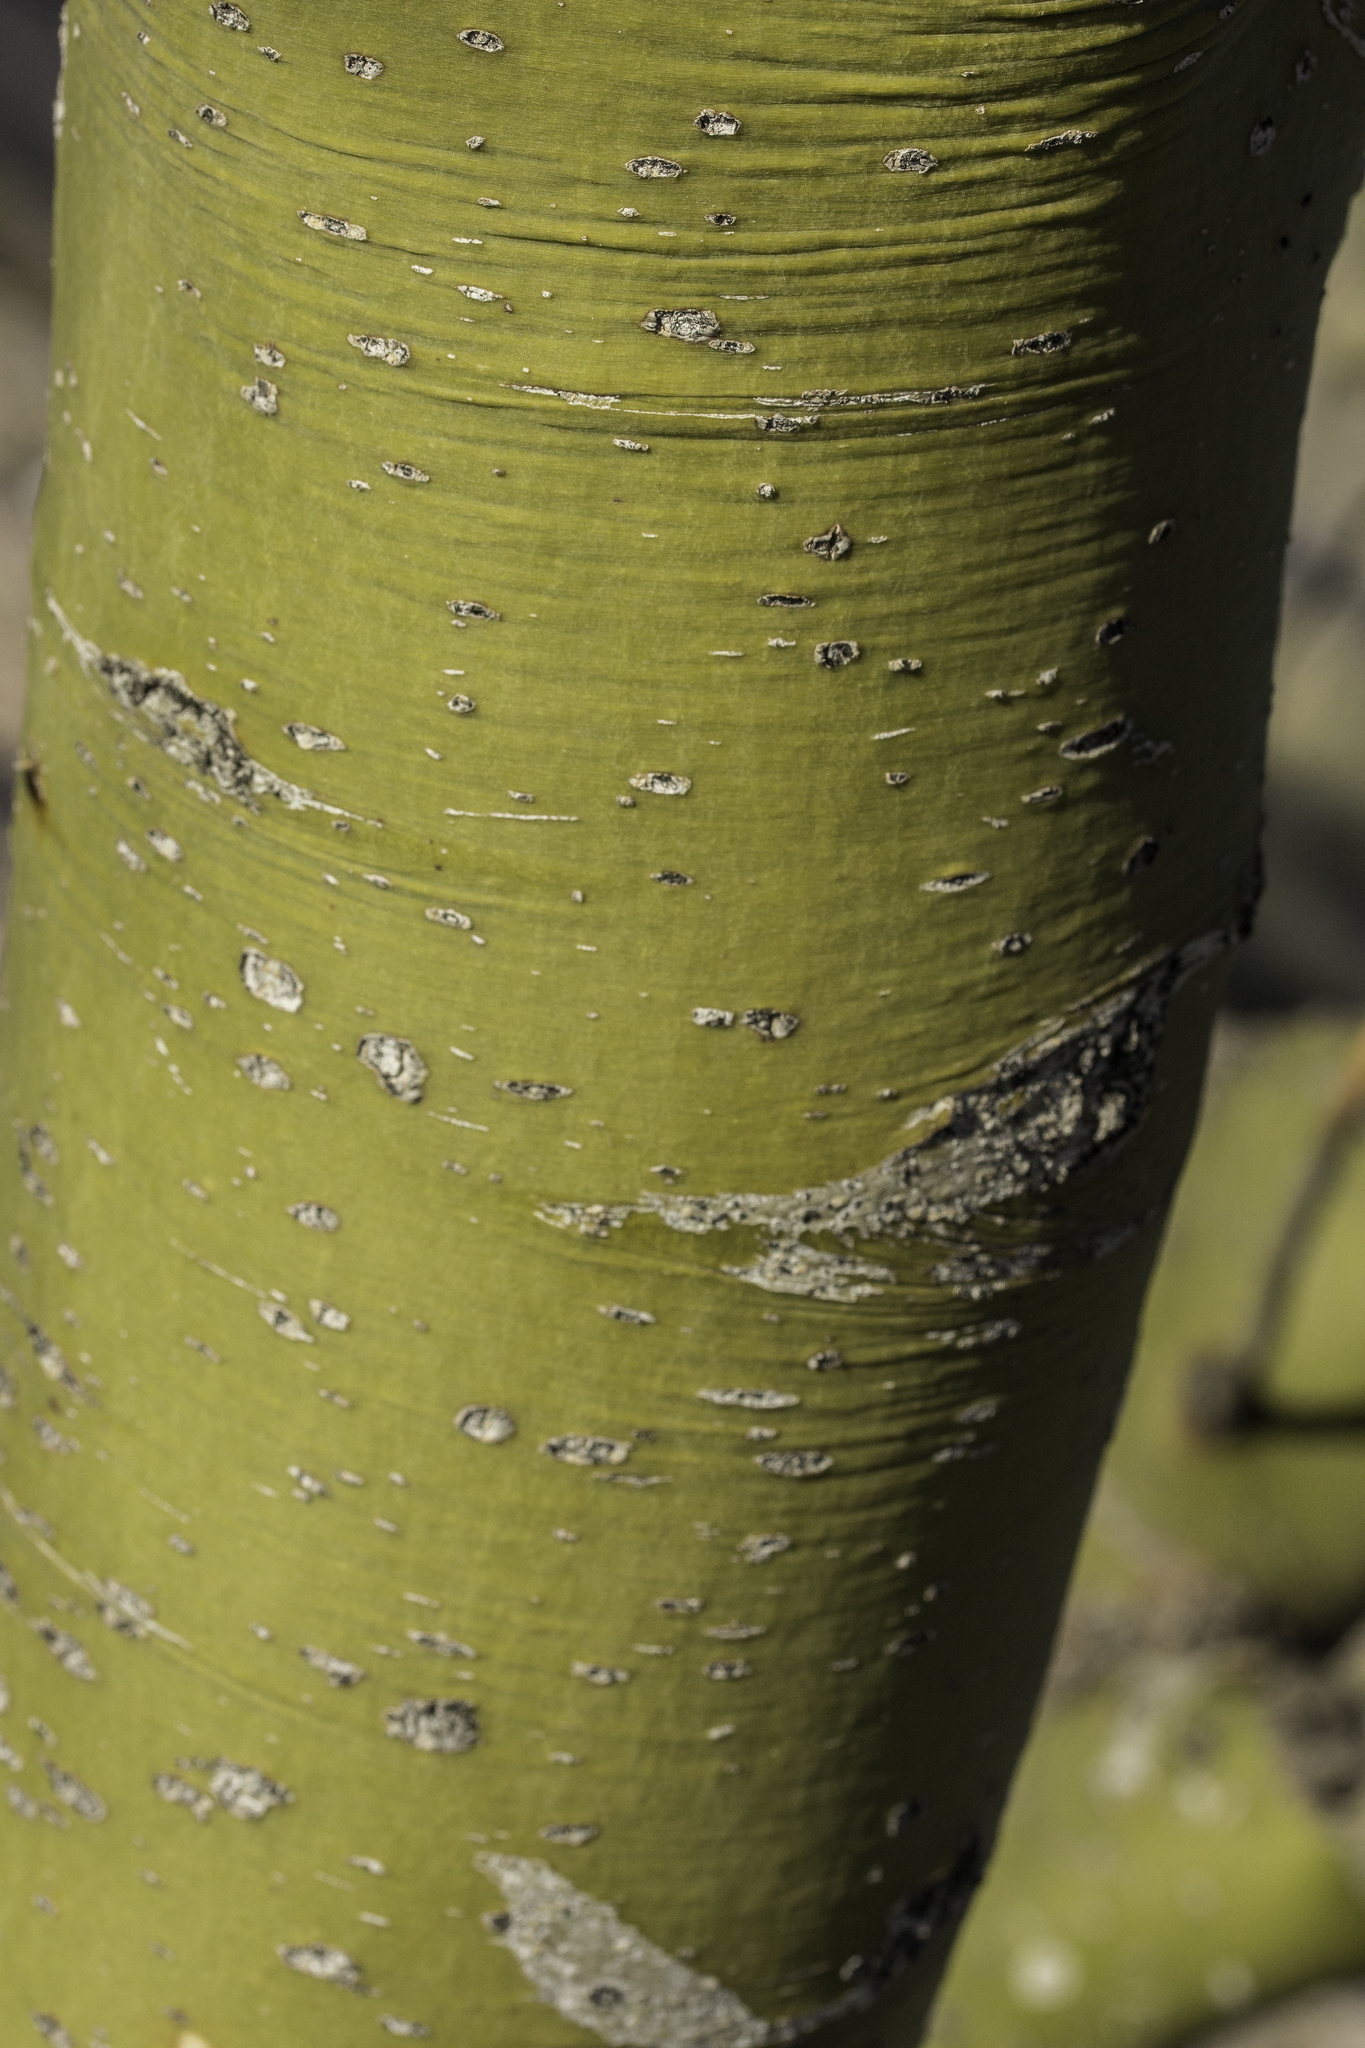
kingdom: Plantae
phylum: Tracheophyta
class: Magnoliopsida
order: Fabales
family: Fabaceae
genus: Parkinsonia
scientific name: Parkinsonia microphylla
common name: Yellow paloverde
